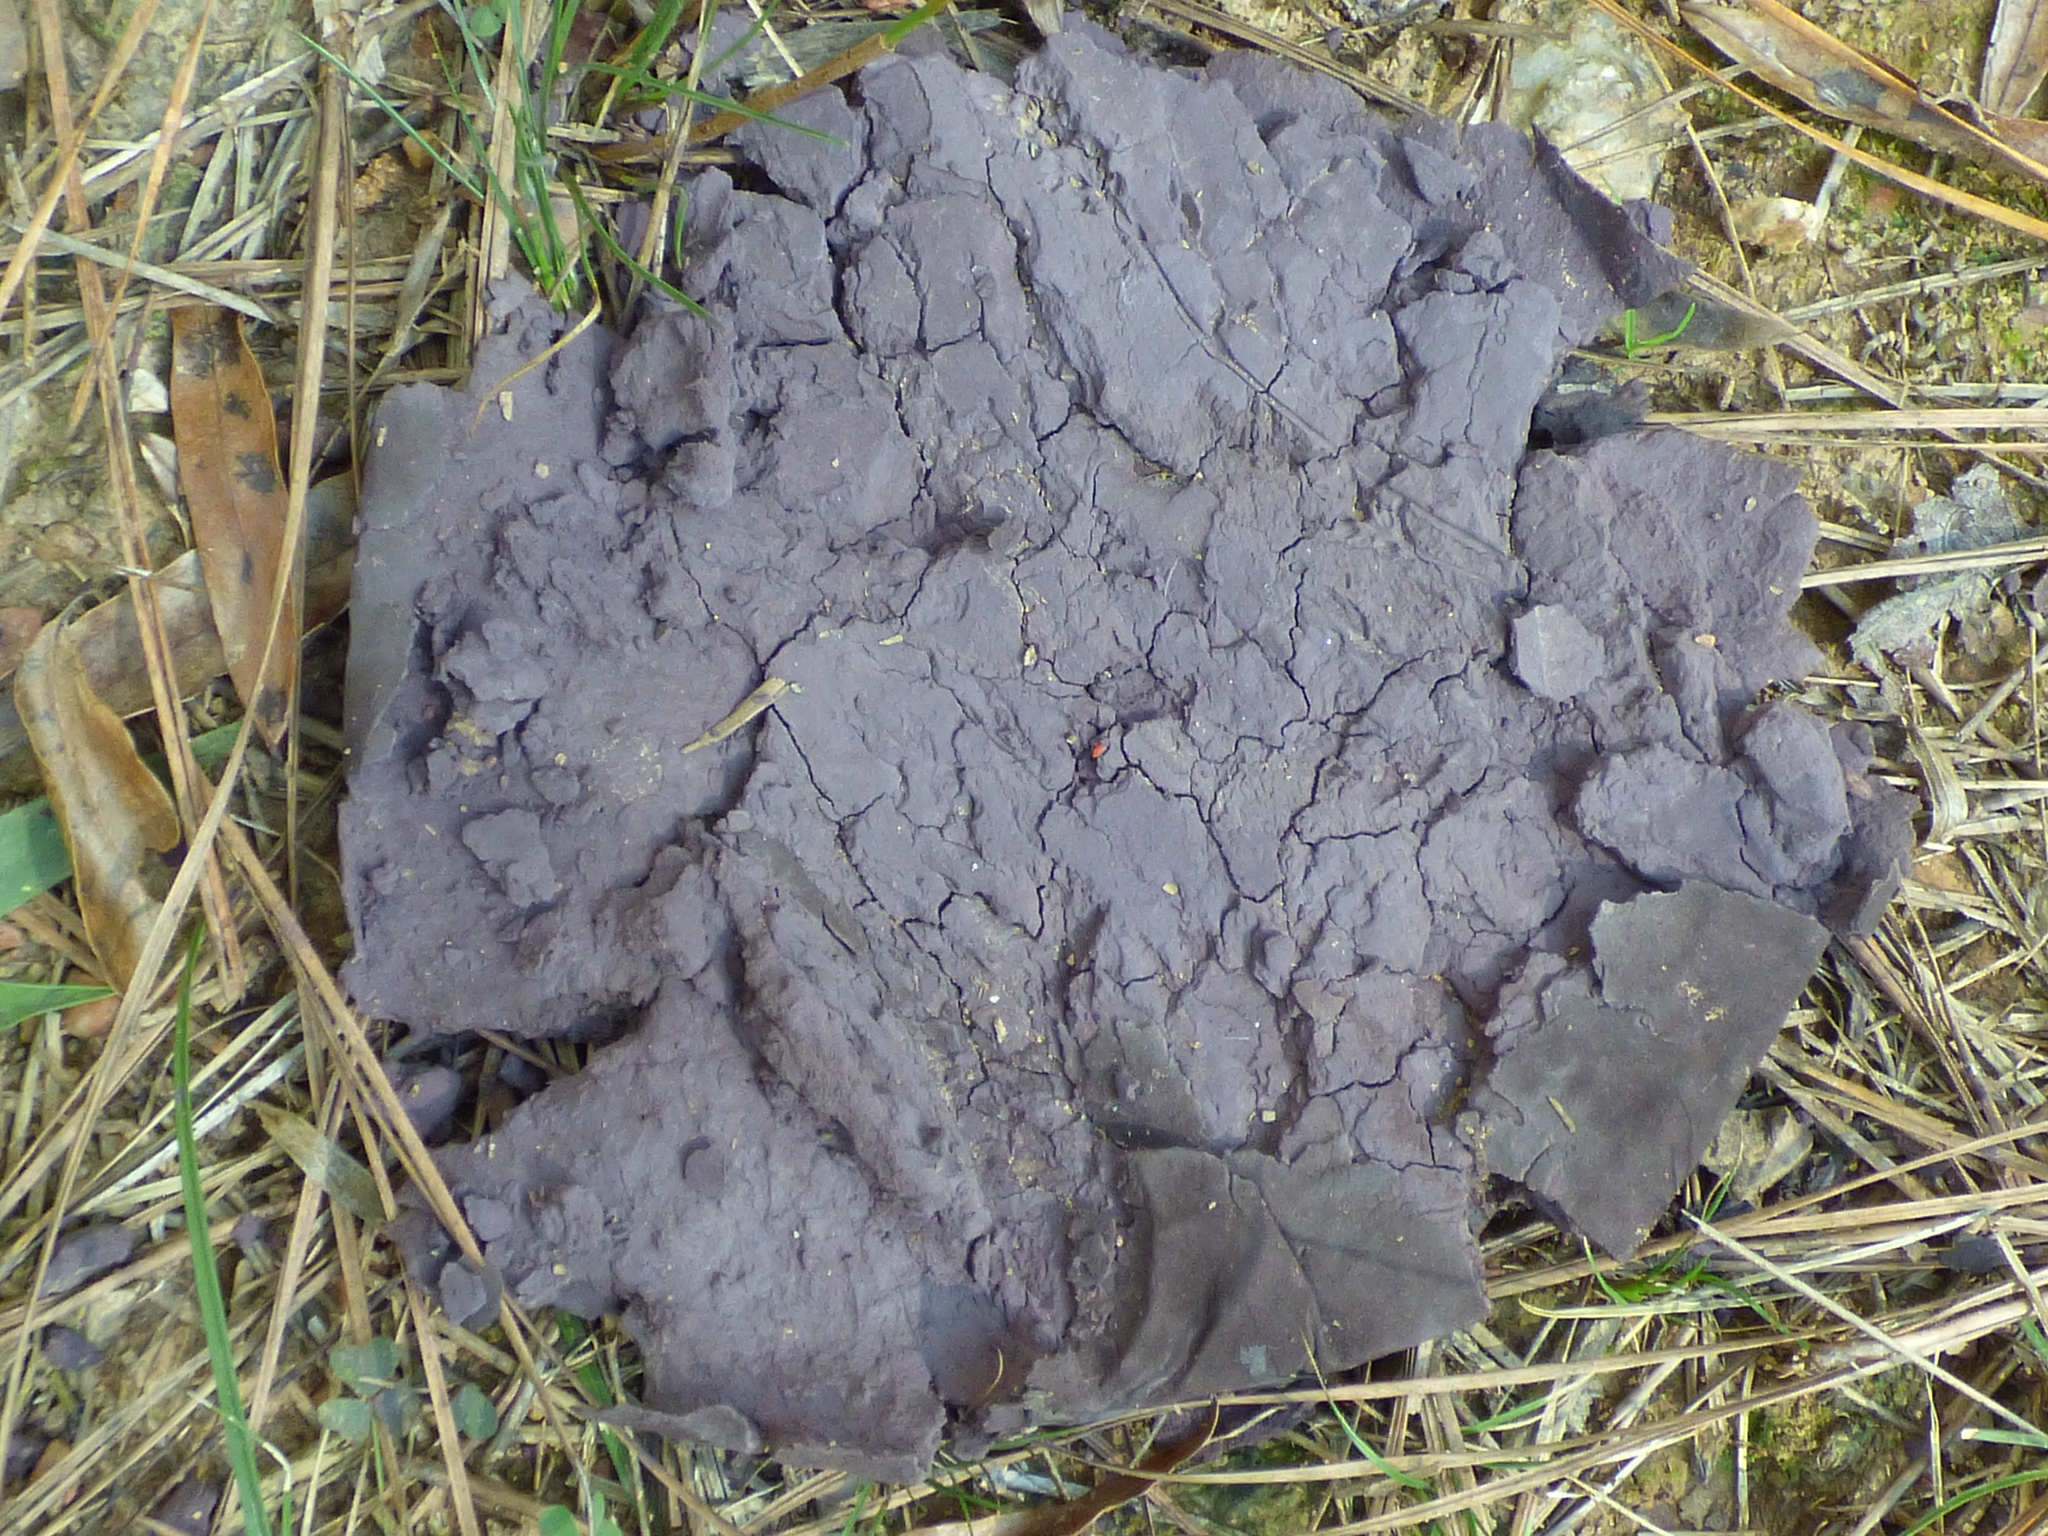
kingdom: Fungi
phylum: Basidiomycota
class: Agaricomycetes
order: Agaricales
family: Lycoperdaceae
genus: Calvatia
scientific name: Calvatia cyathiformis
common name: Purple-spored puffball
